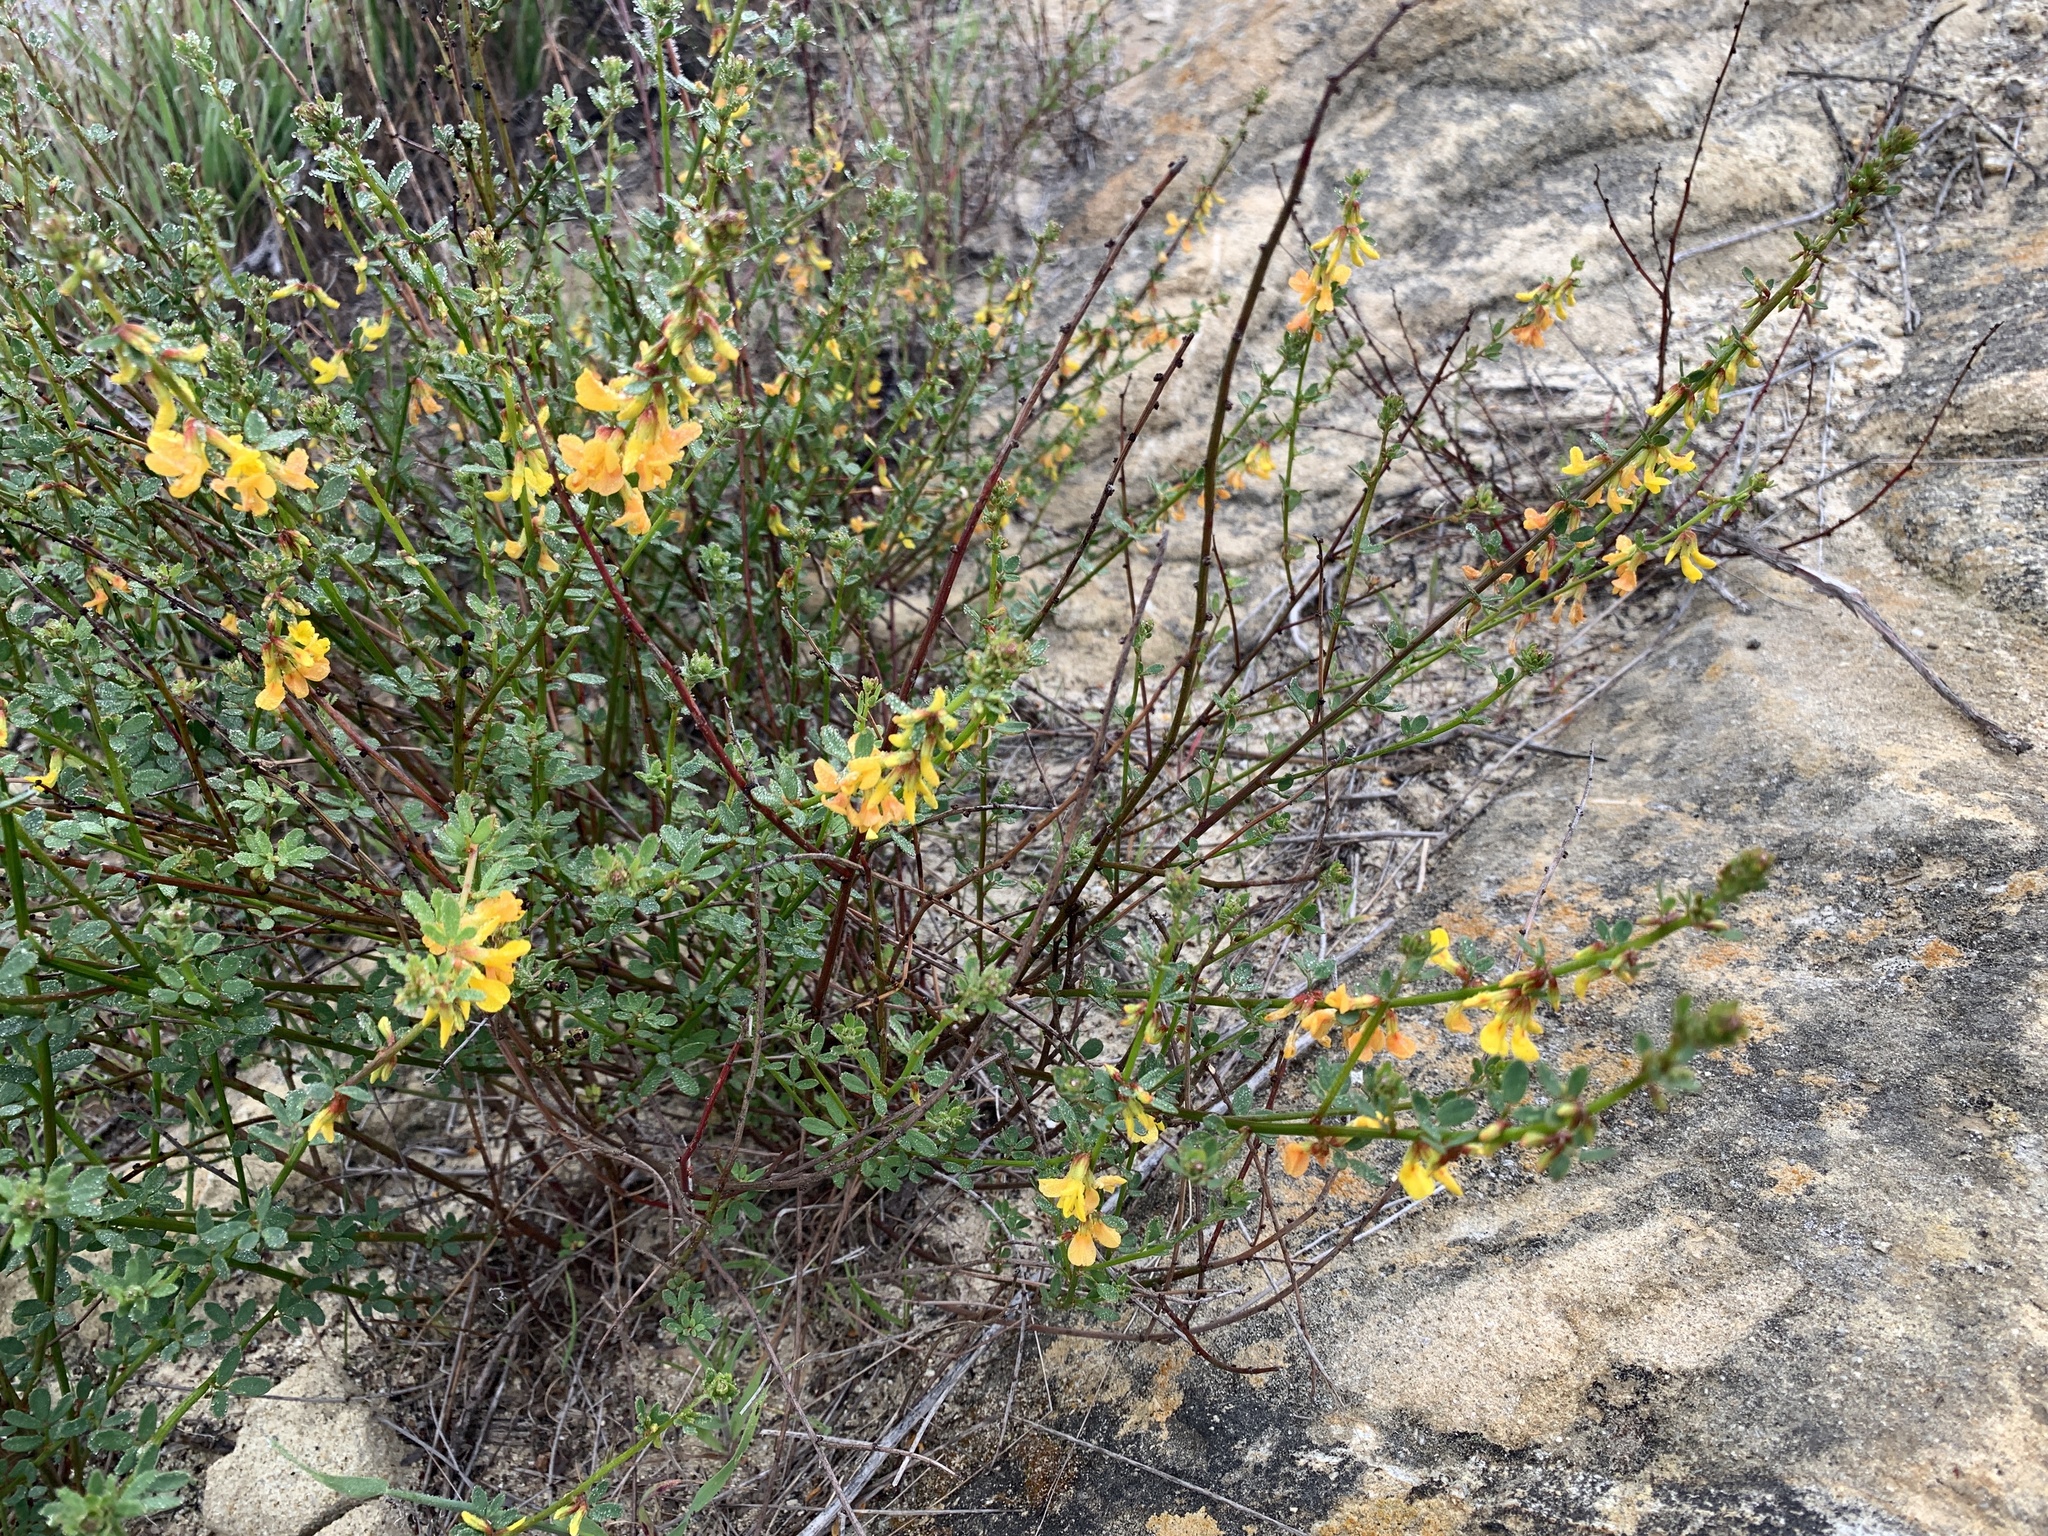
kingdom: Plantae
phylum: Tracheophyta
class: Magnoliopsida
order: Fabales
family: Fabaceae
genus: Acmispon
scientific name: Acmispon glaber
